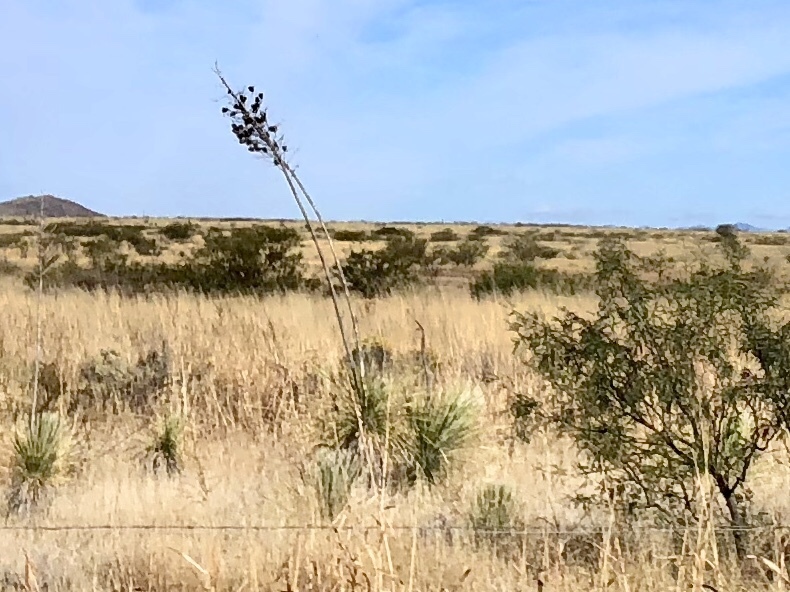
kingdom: Plantae
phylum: Tracheophyta
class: Liliopsida
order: Asparagales
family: Asparagaceae
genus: Yucca
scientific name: Yucca elata
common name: Palmella
